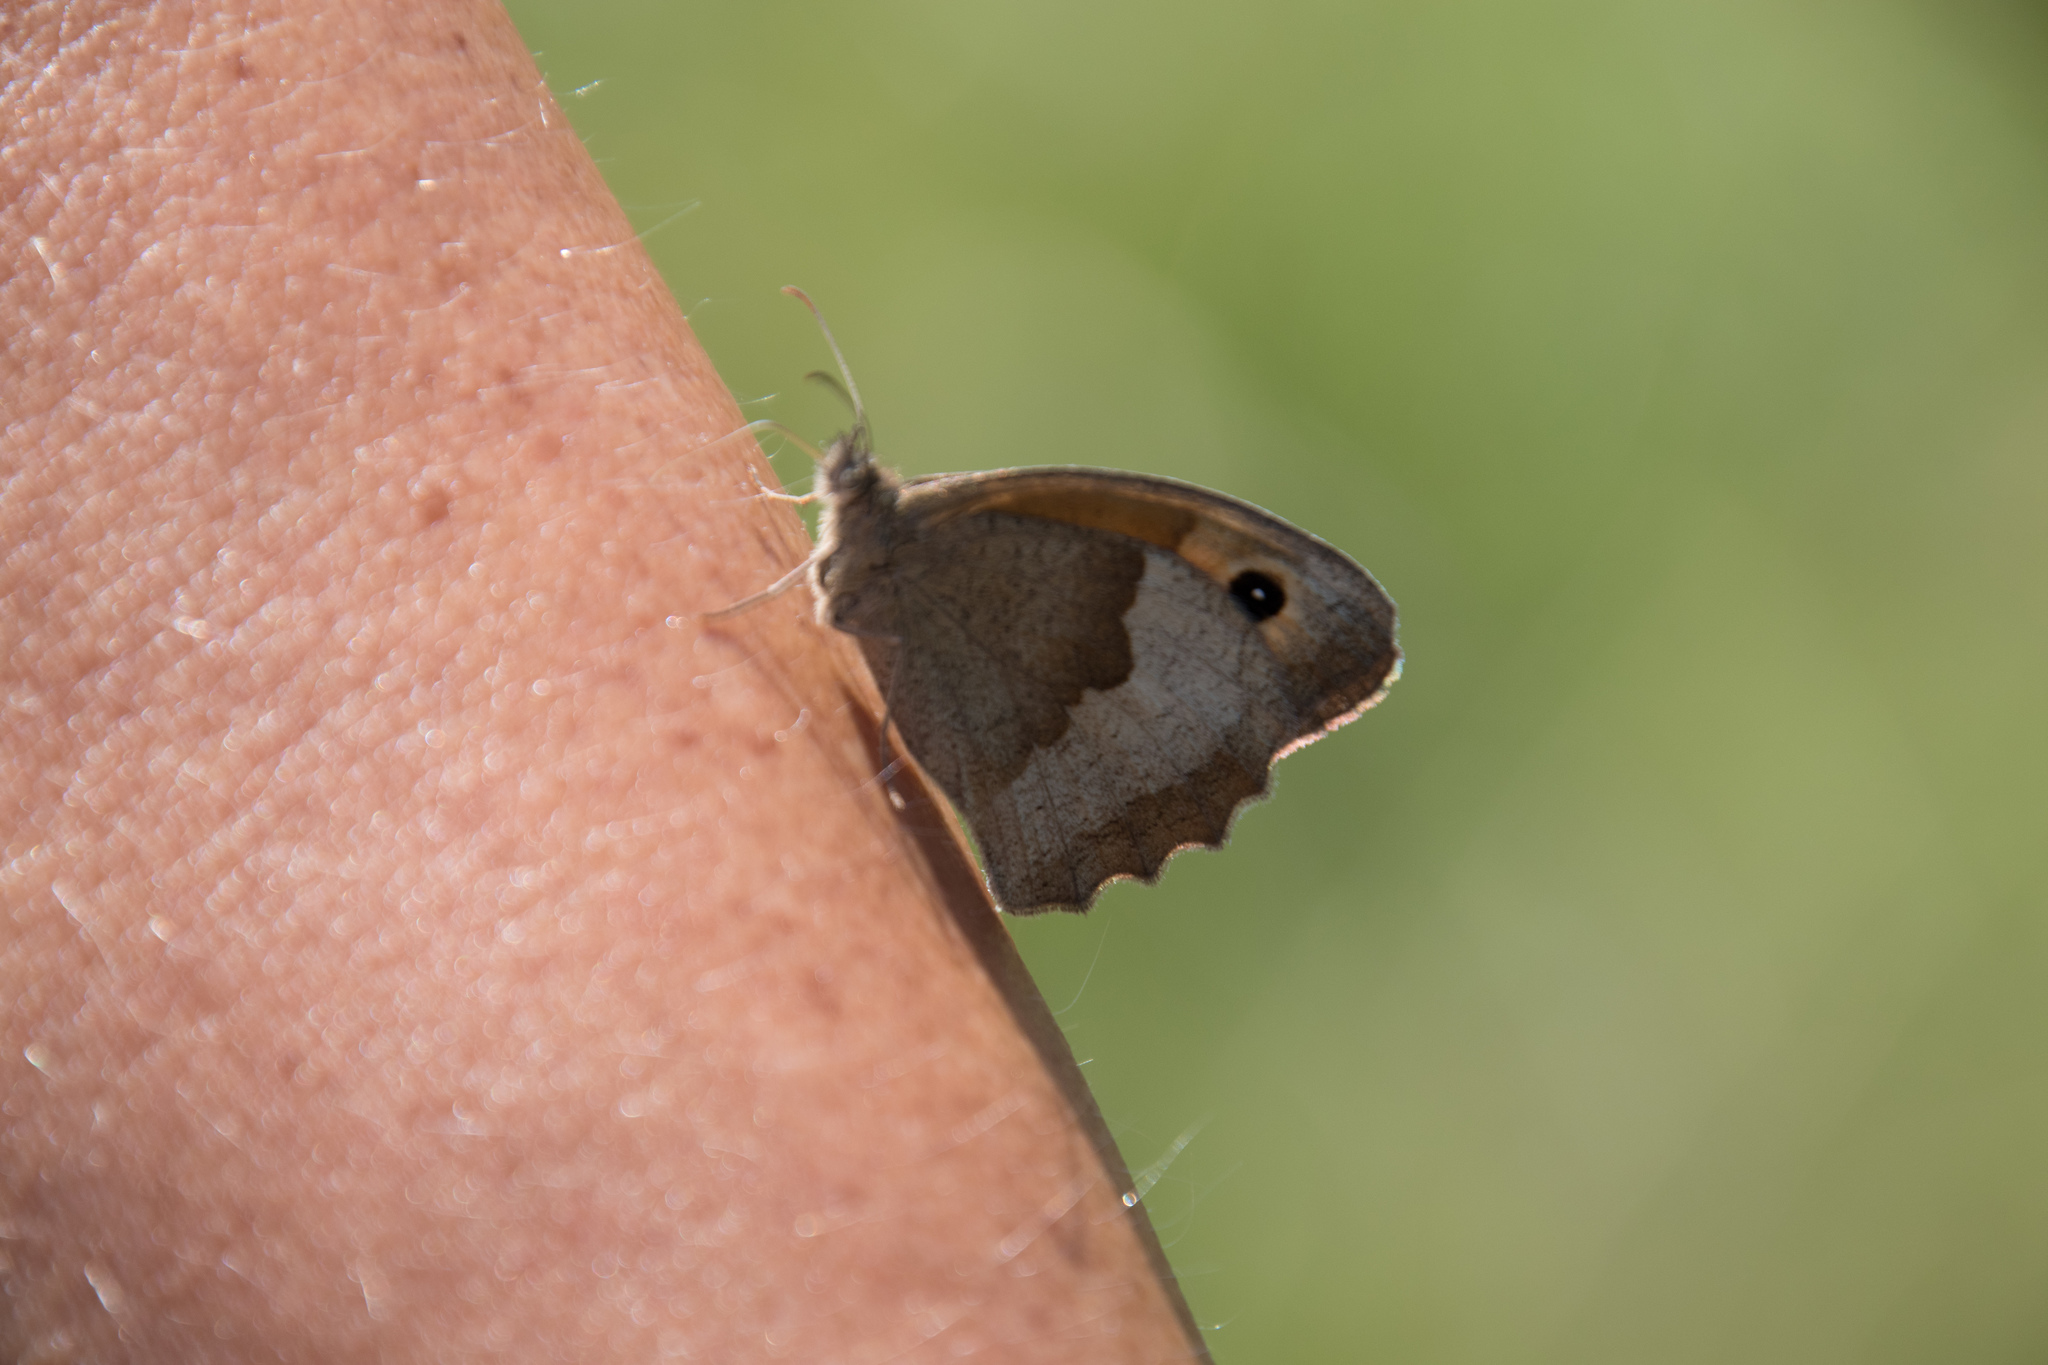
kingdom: Animalia
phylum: Arthropoda
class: Insecta
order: Lepidoptera
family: Nymphalidae
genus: Maniola
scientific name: Maniola jurtina
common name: Meadow brown
